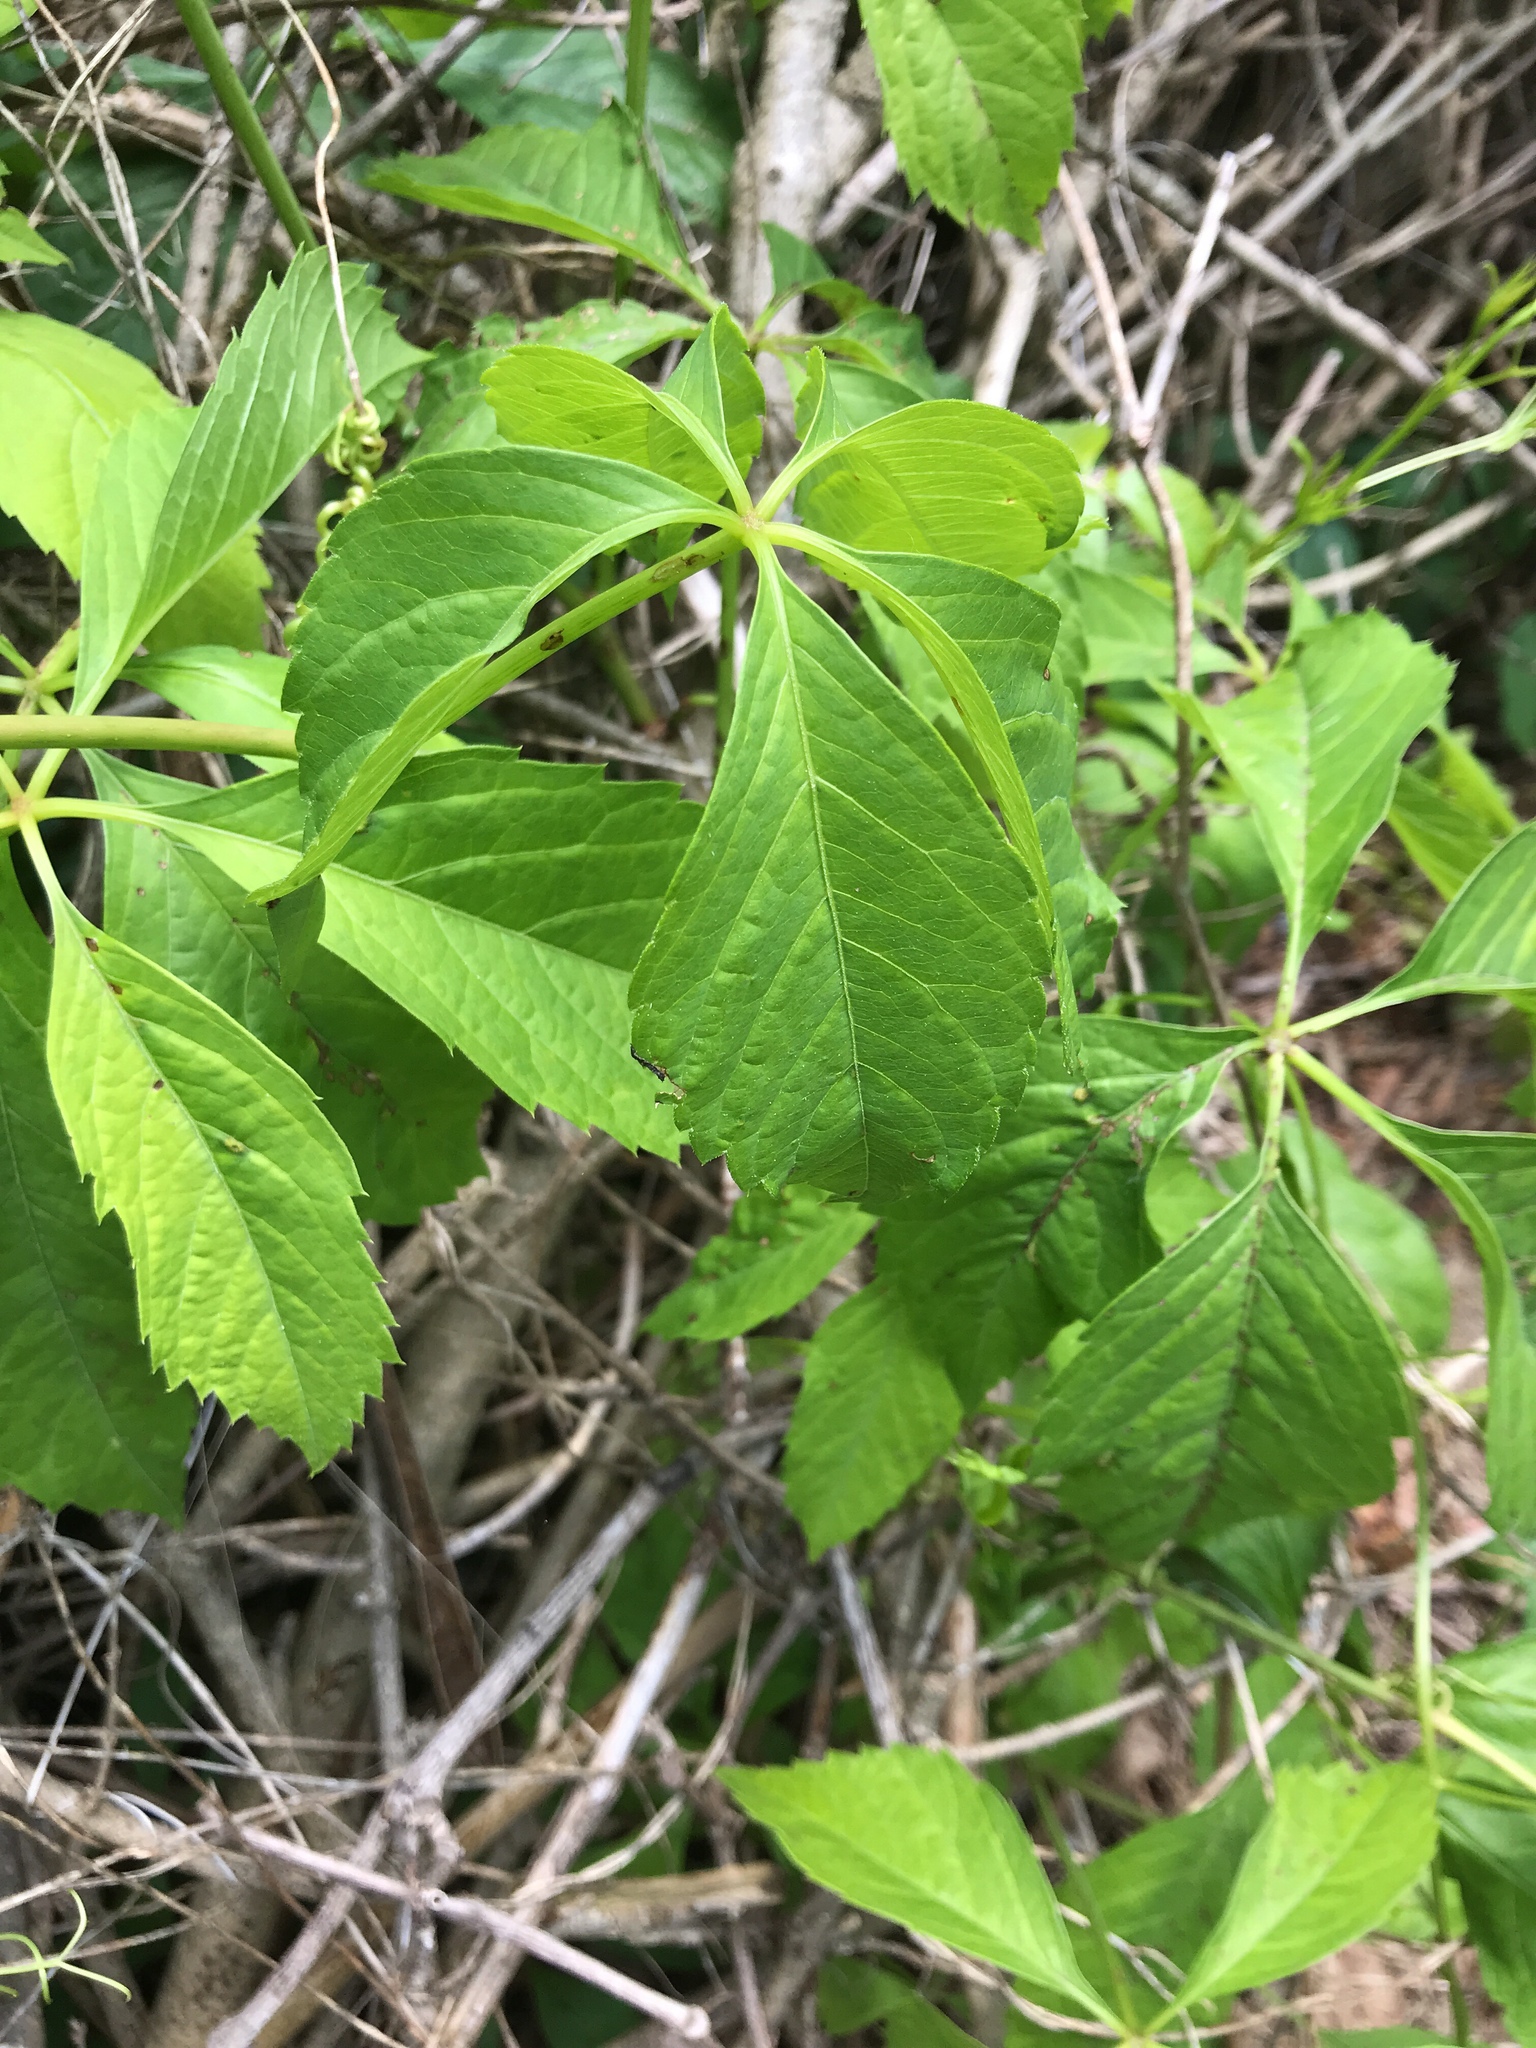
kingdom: Plantae
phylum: Tracheophyta
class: Magnoliopsida
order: Vitales
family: Vitaceae
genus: Parthenocissus
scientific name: Parthenocissus inserta
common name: False virginia-creeper
